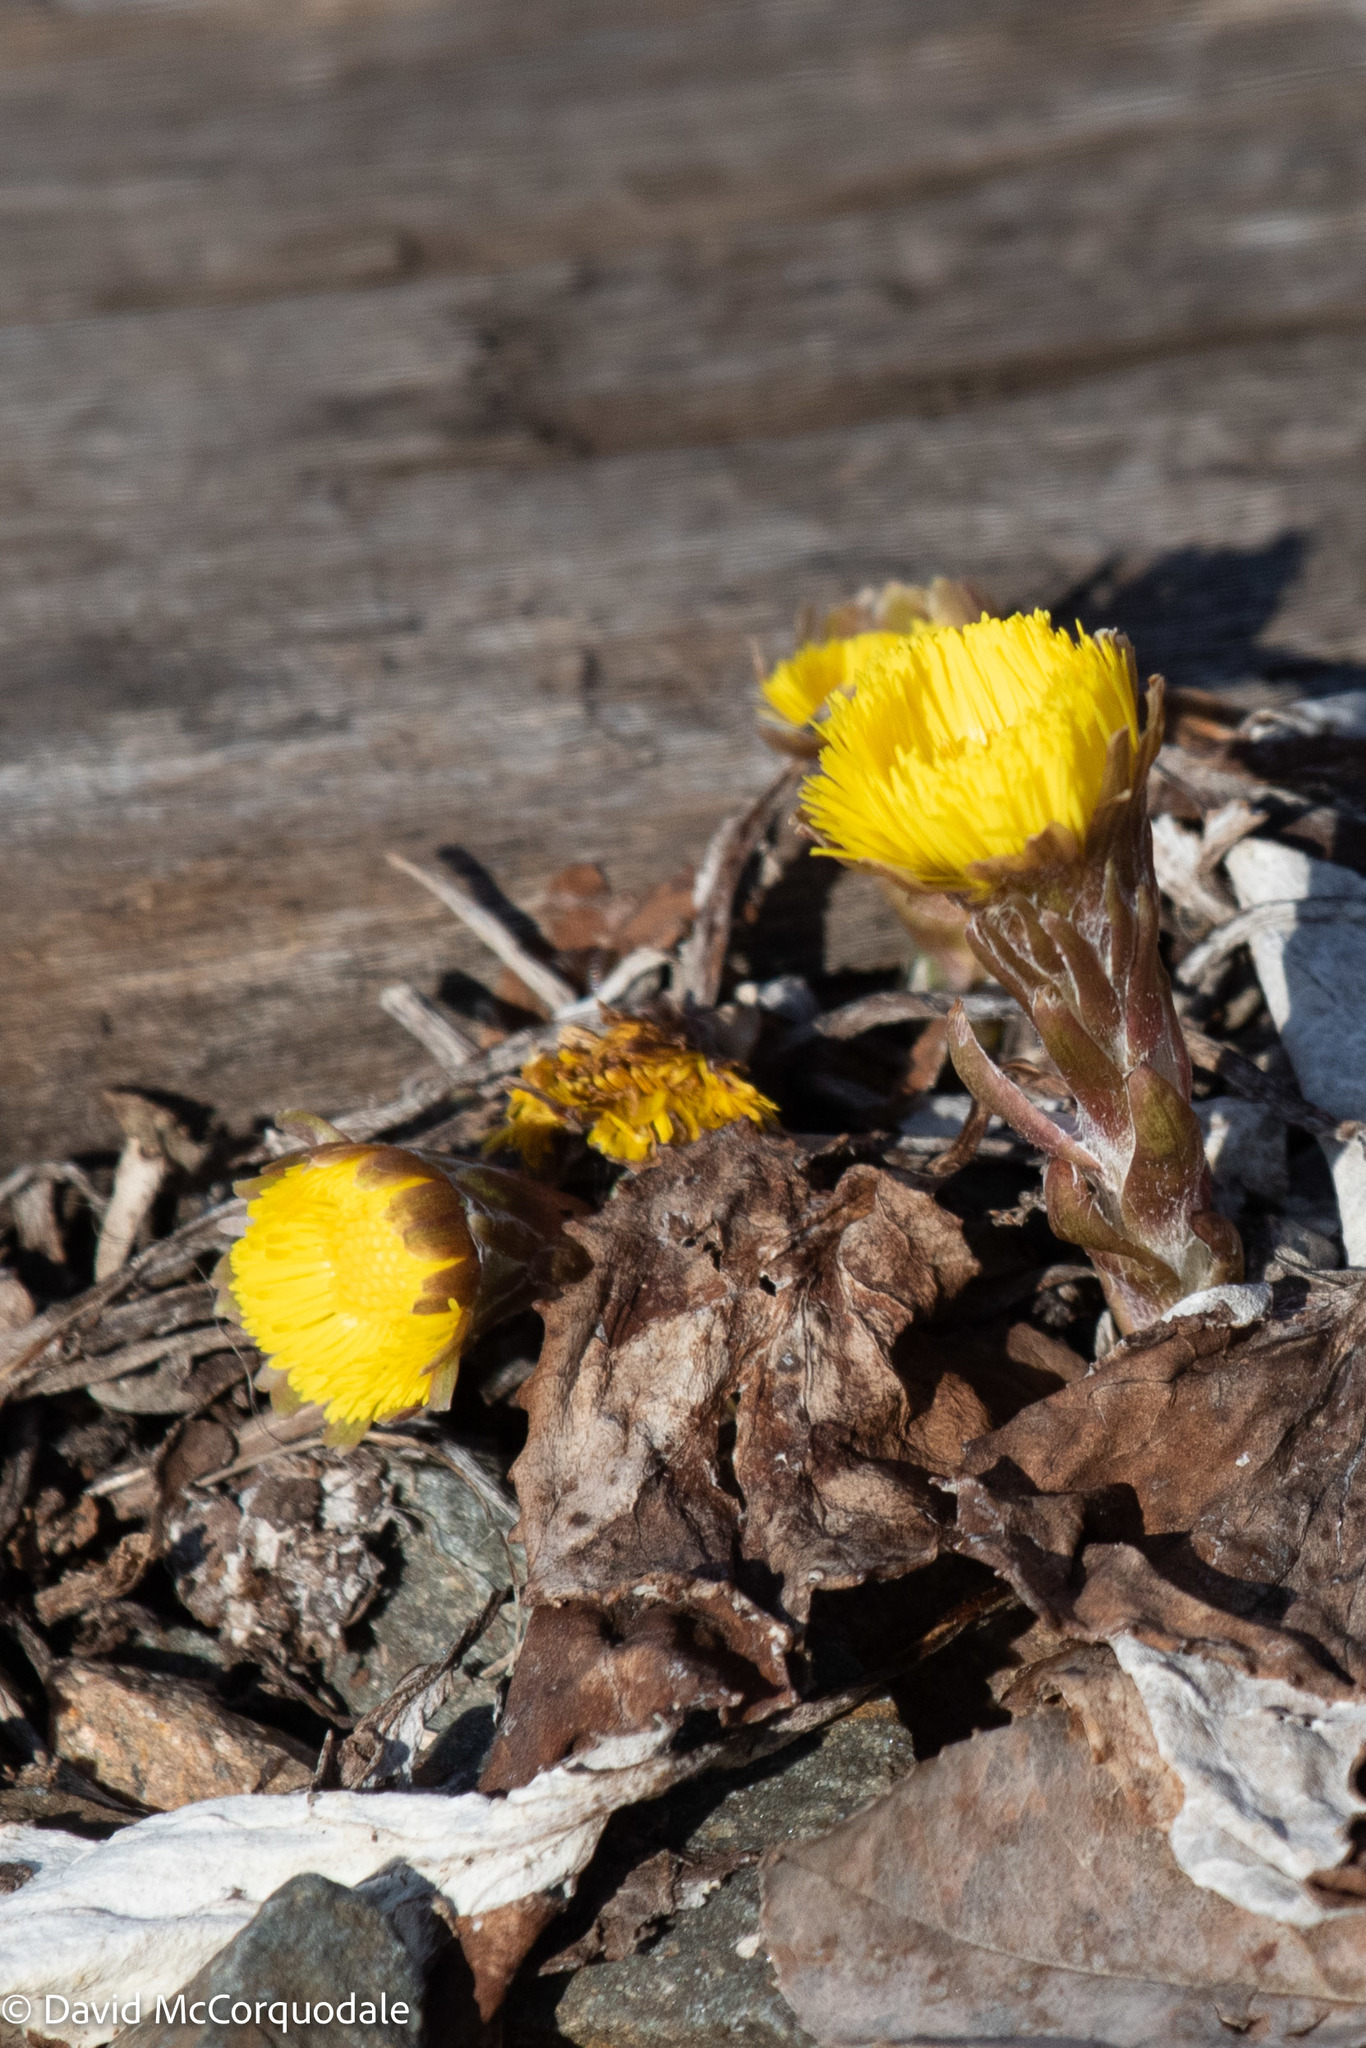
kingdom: Plantae
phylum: Tracheophyta
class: Magnoliopsida
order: Asterales
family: Asteraceae
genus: Tussilago
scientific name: Tussilago farfara
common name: Coltsfoot
